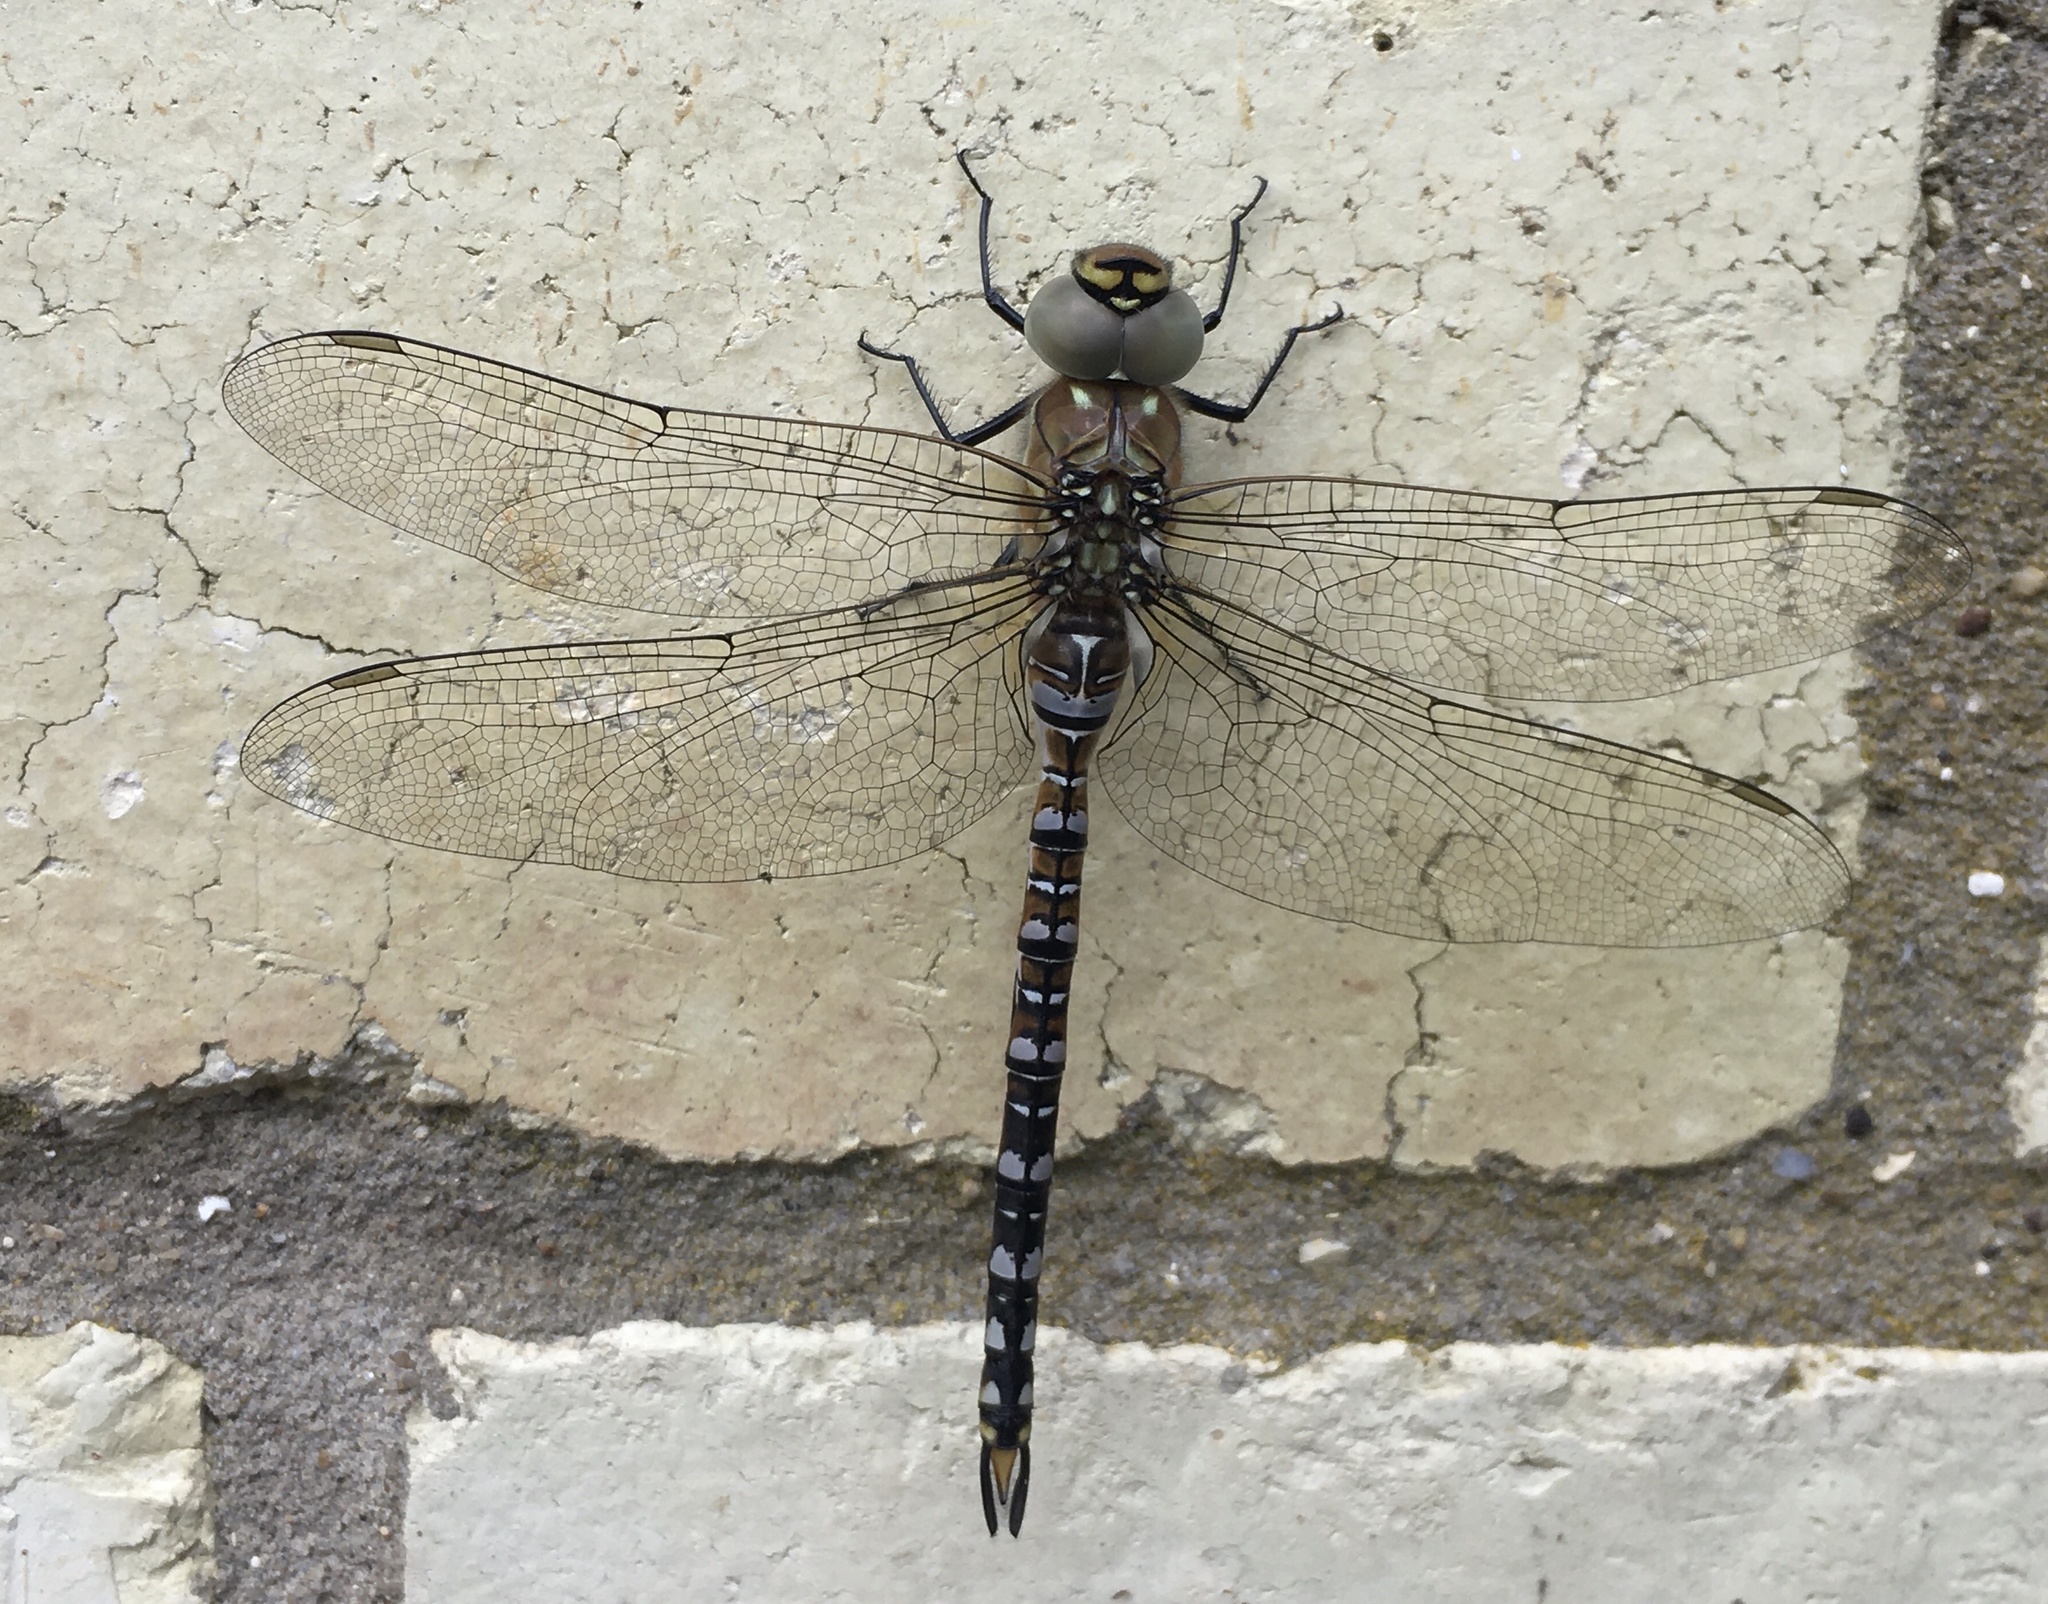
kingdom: Animalia
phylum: Arthropoda
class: Insecta
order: Odonata
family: Aeshnidae
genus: Aeshna
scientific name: Aeshna mixta
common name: Migrant hawker
